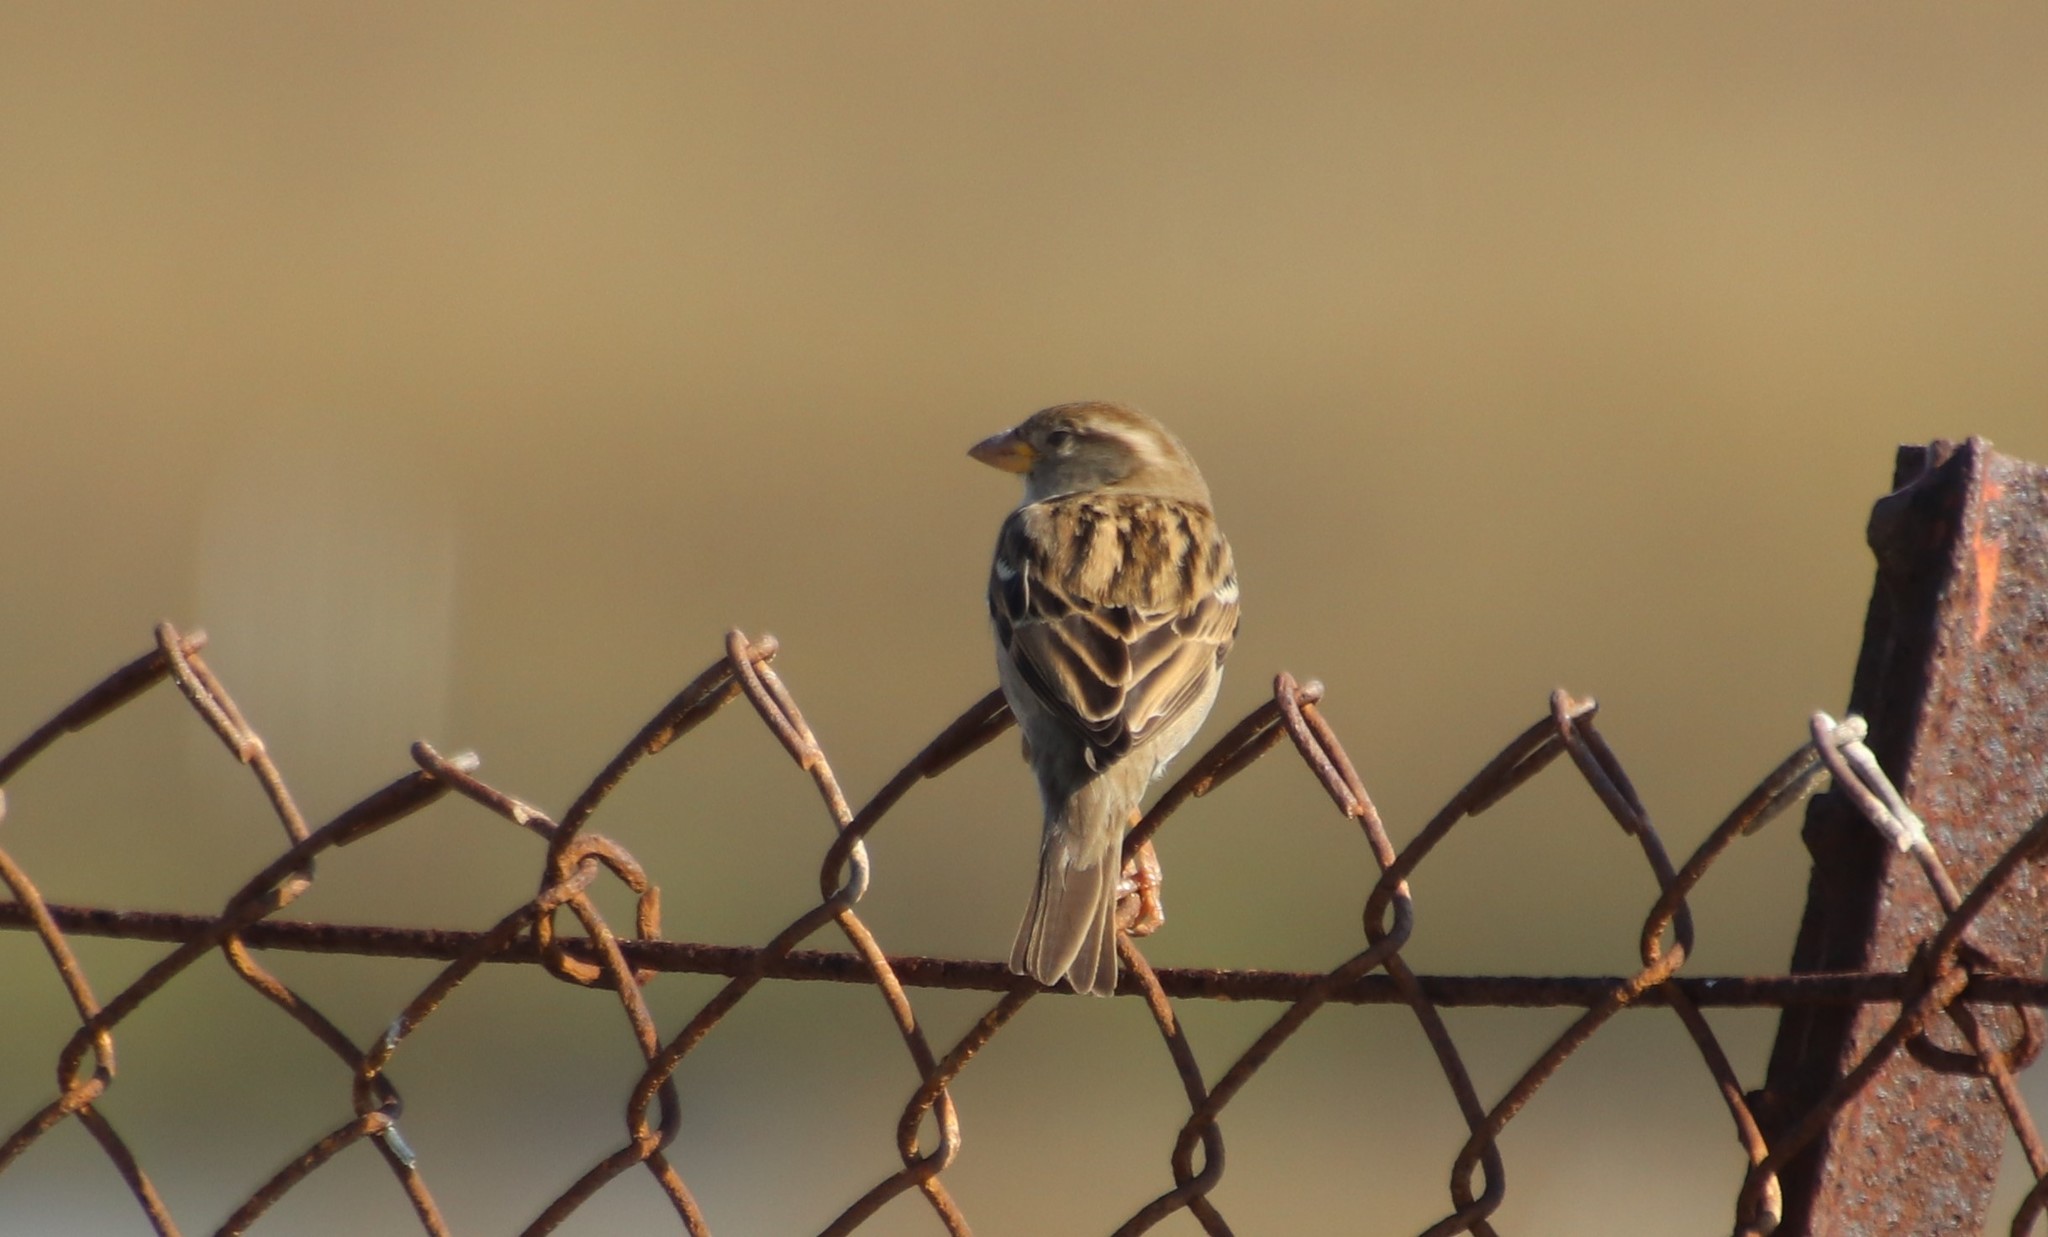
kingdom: Animalia
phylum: Chordata
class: Aves
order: Passeriformes
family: Passeridae
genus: Passer
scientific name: Passer domesticus
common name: House sparrow
